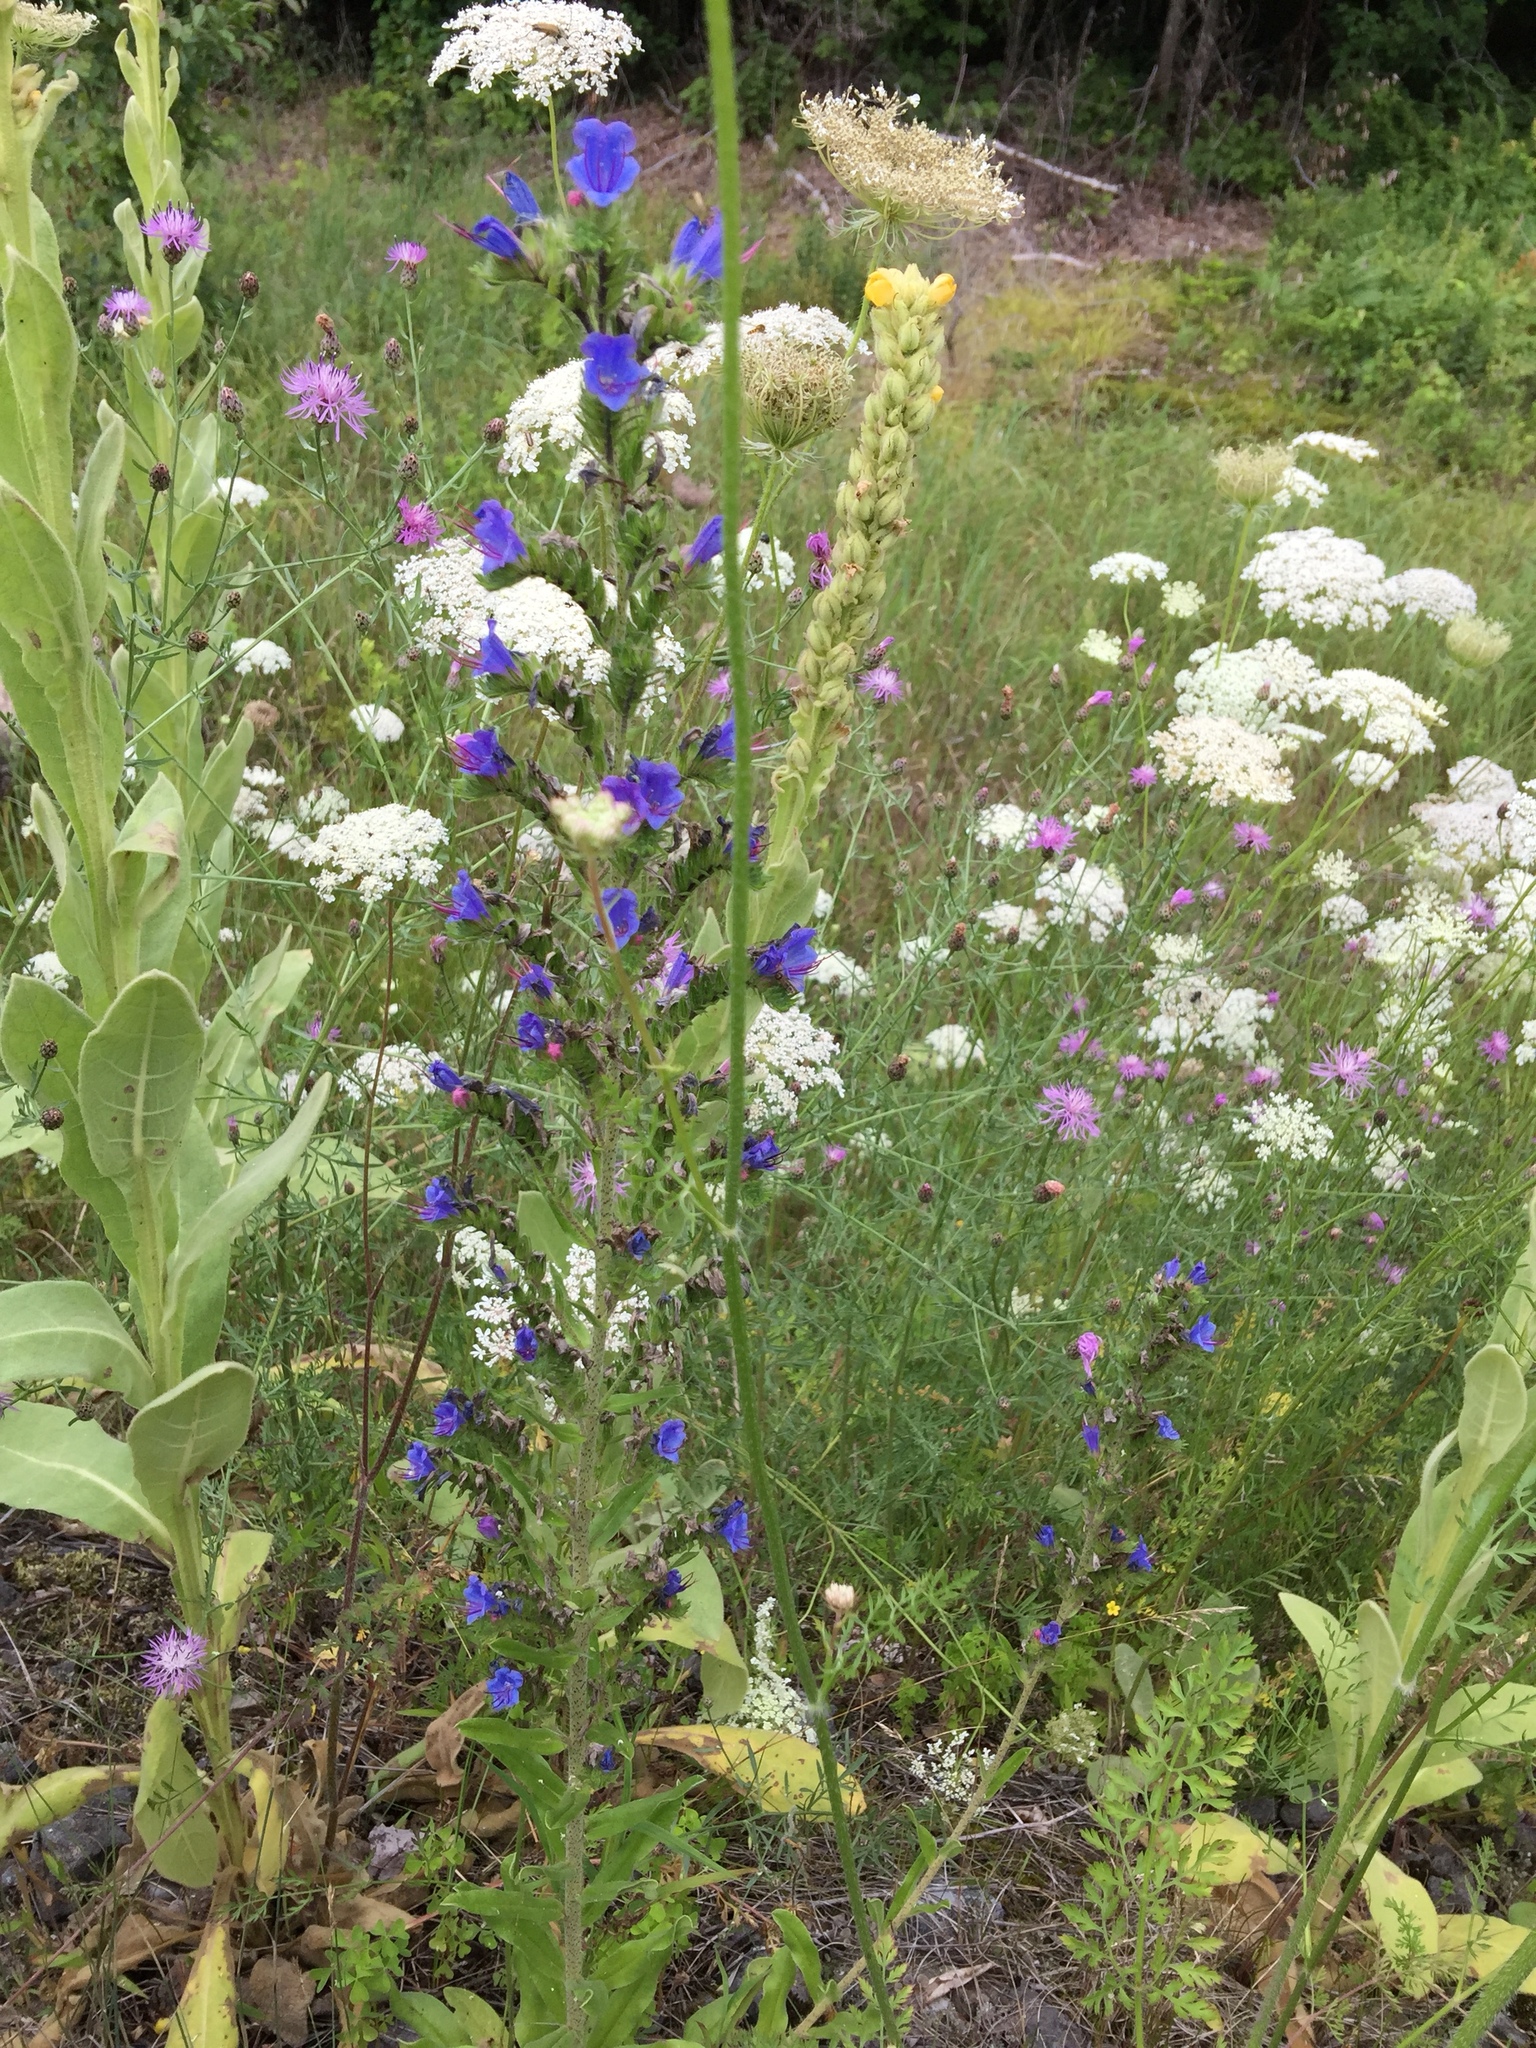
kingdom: Plantae
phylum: Tracheophyta
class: Magnoliopsida
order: Boraginales
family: Boraginaceae
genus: Echium
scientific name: Echium vulgare
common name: Common viper's bugloss
